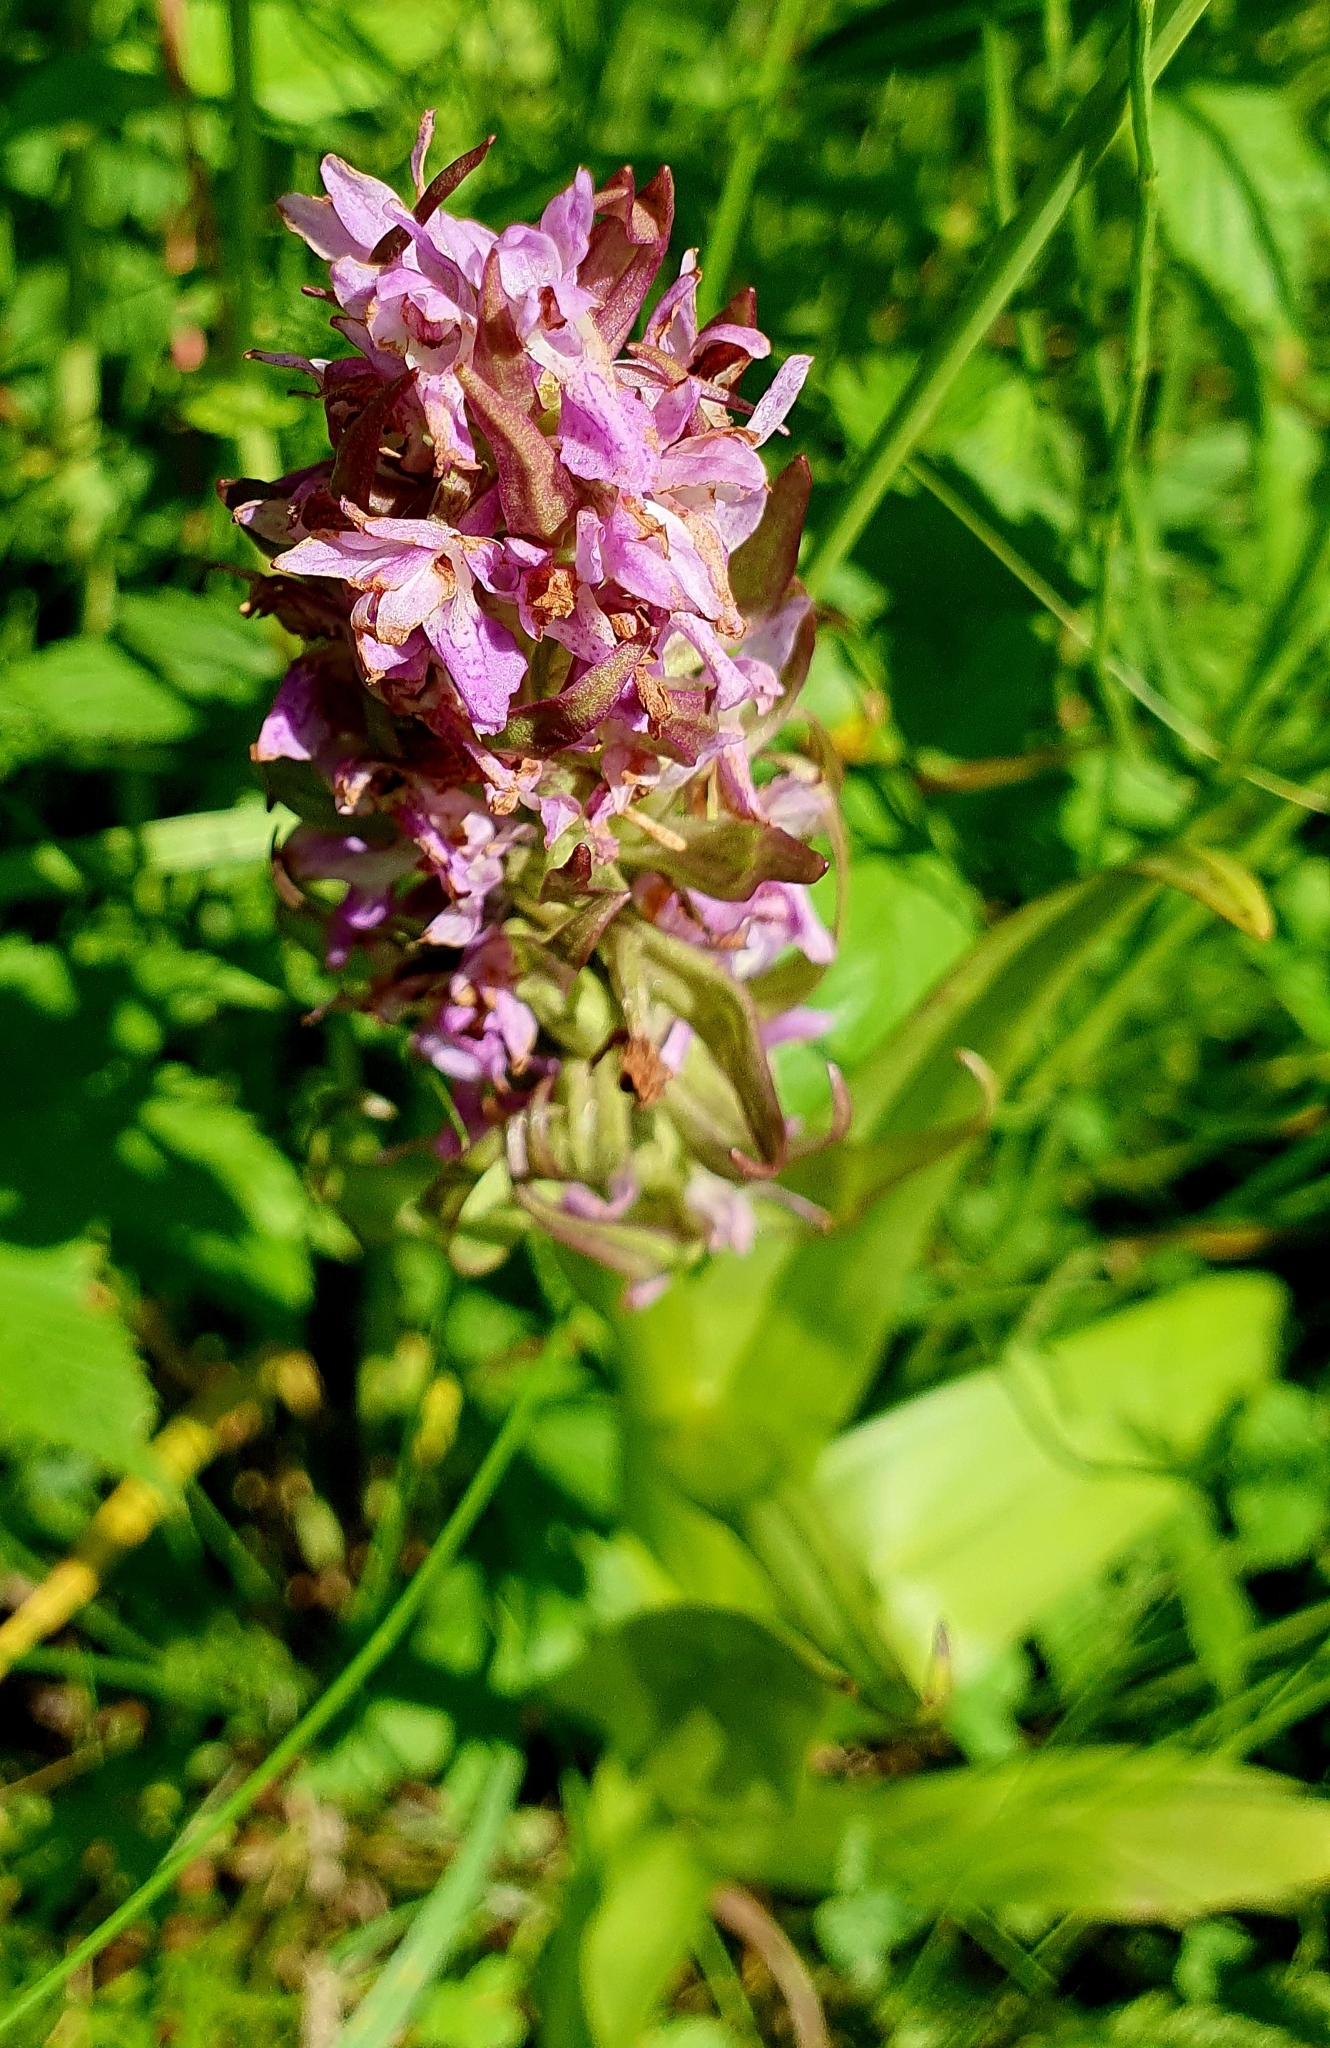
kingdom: Plantae
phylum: Tracheophyta
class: Liliopsida
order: Asparagales
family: Orchidaceae
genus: Dactylorhiza
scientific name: Dactylorhiza incarnata
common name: Early marsh-orchid
